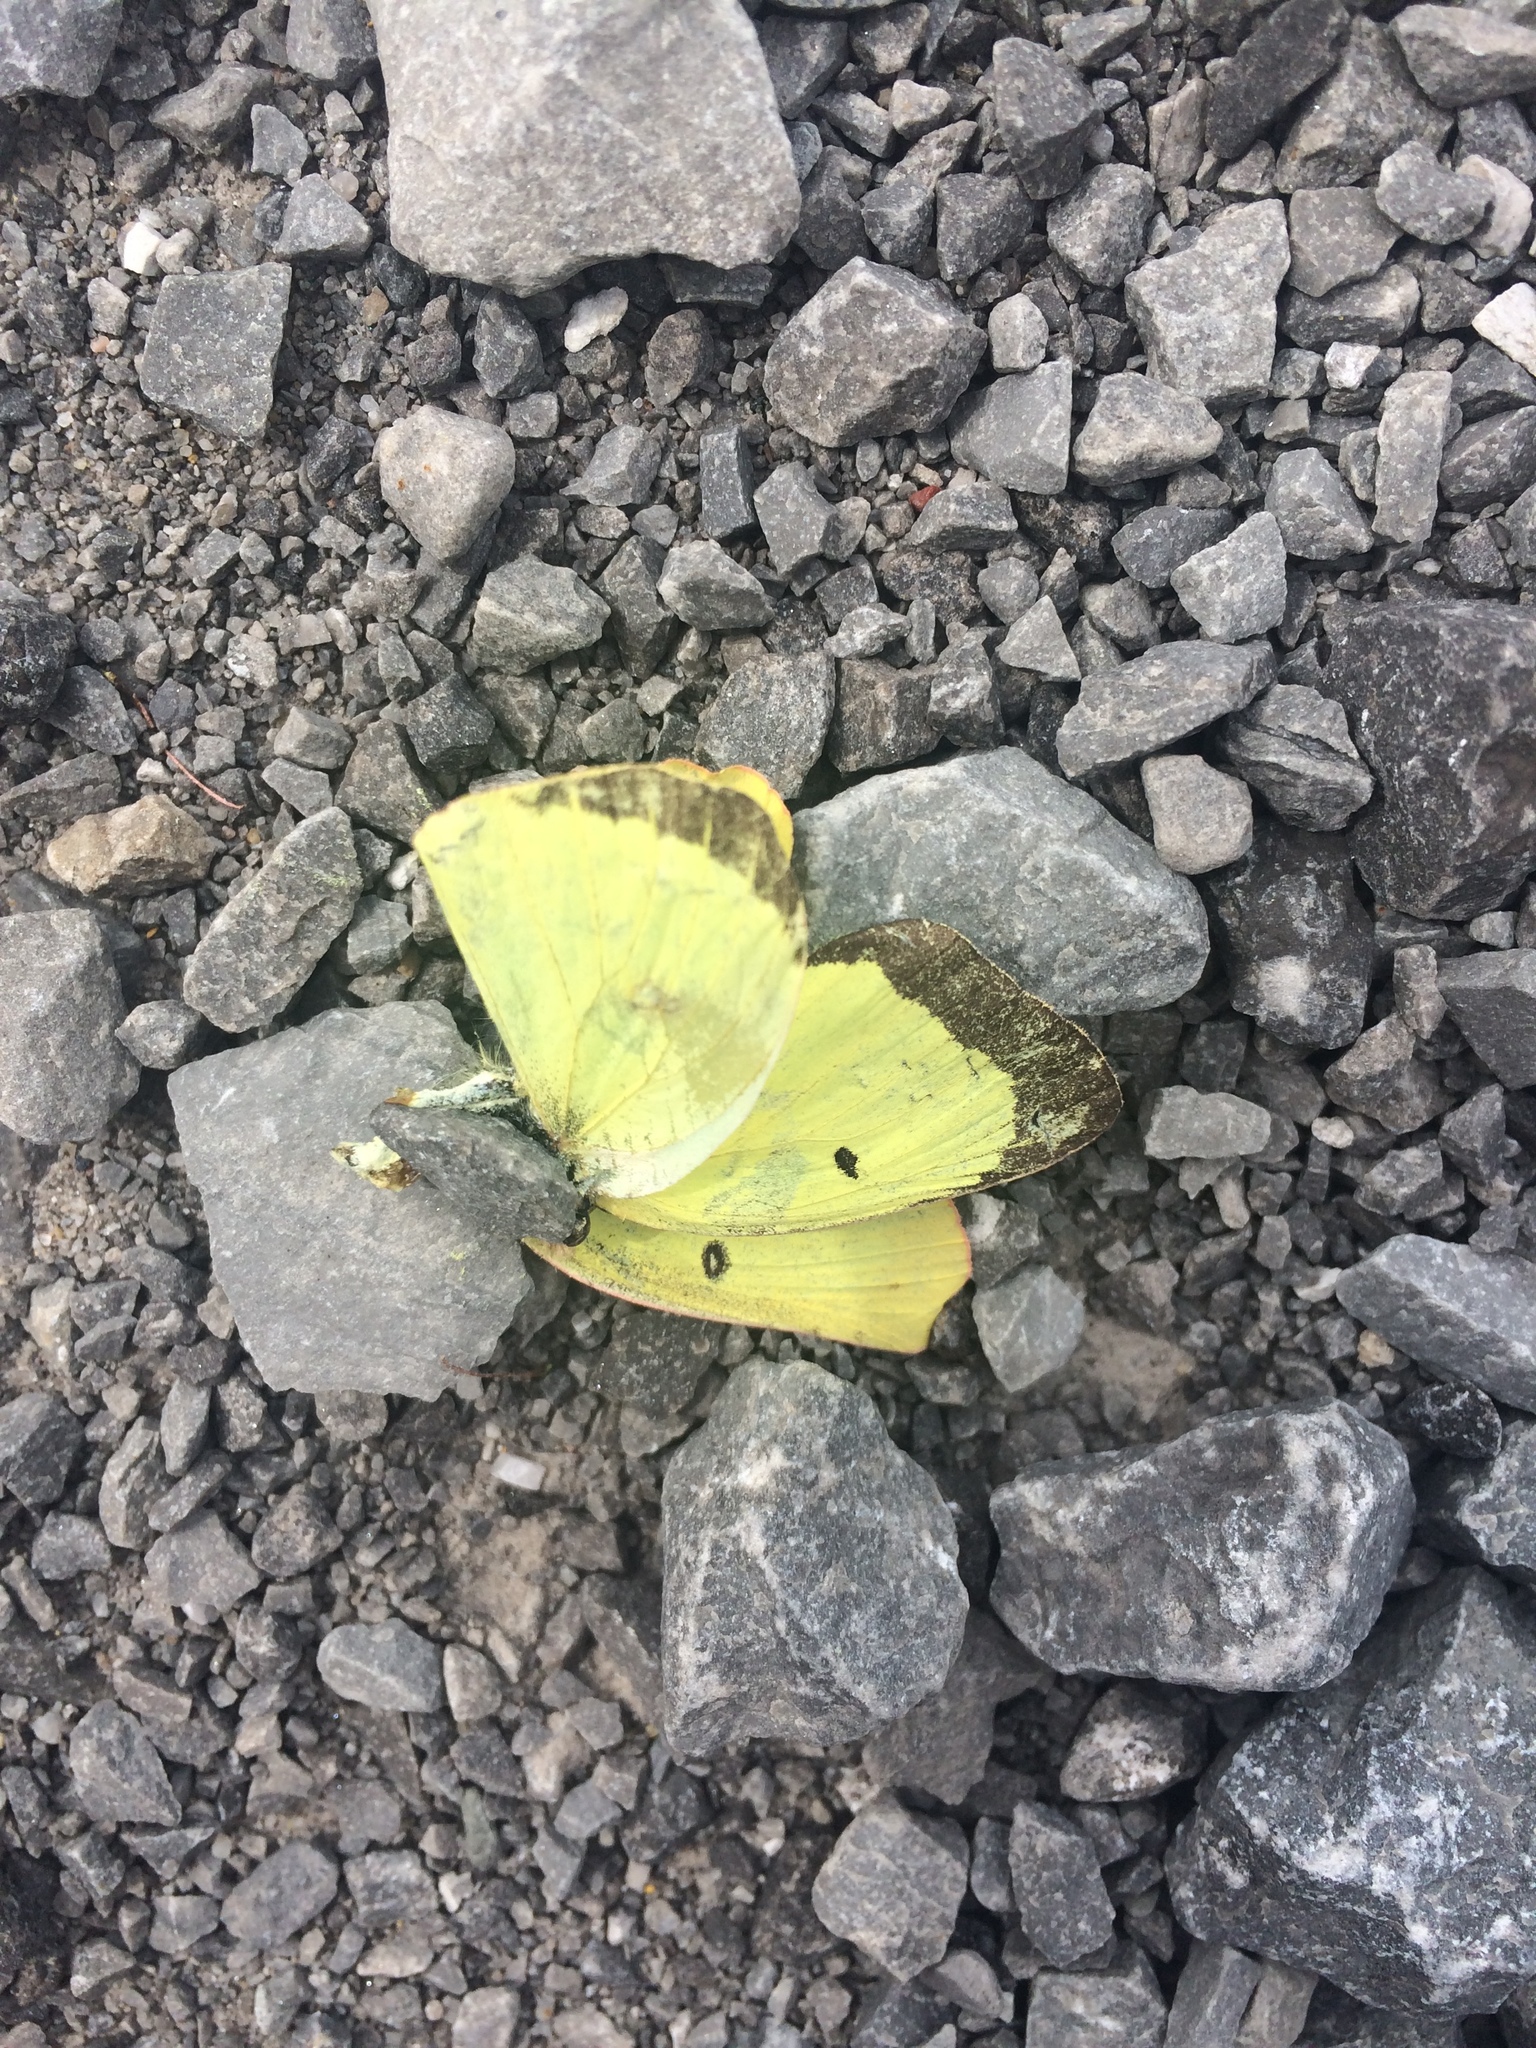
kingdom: Animalia
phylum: Arthropoda
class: Insecta
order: Lepidoptera
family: Pieridae
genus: Colias
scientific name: Colias philodice
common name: Clouded sulphur
